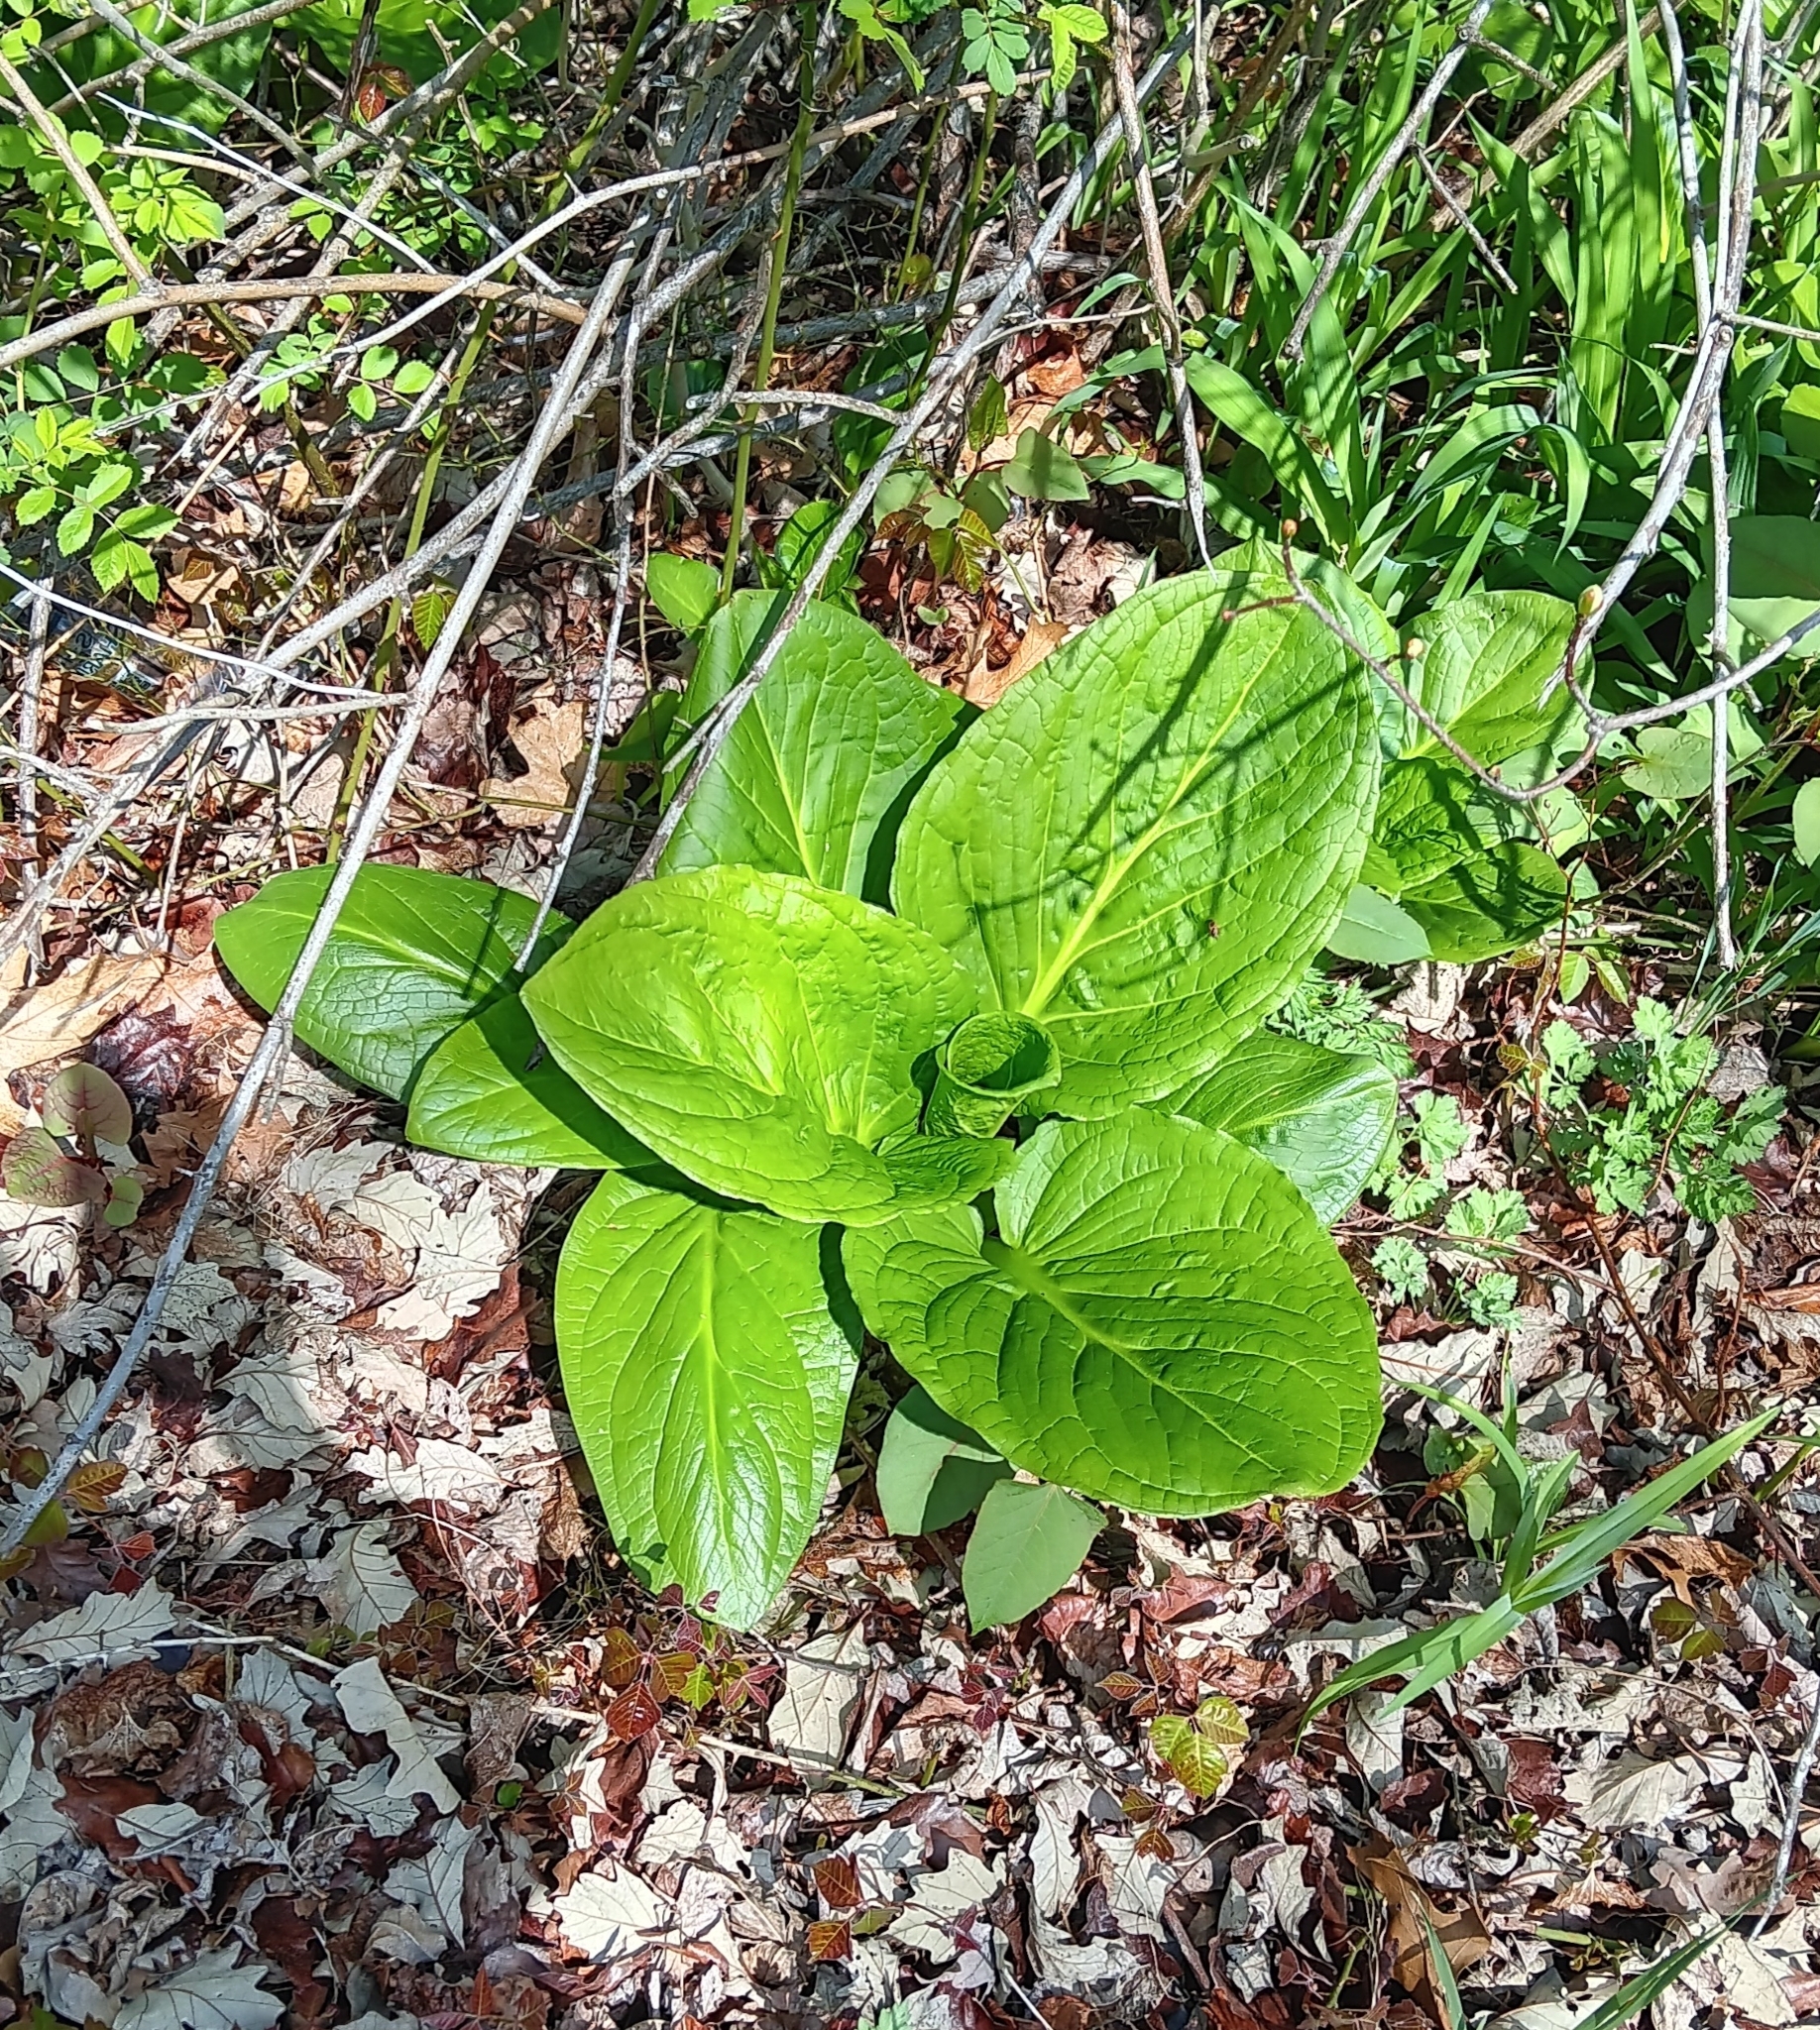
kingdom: Plantae
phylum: Tracheophyta
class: Liliopsida
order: Alismatales
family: Araceae
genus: Symplocarpus
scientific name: Symplocarpus foetidus
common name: Eastern skunk cabbage
